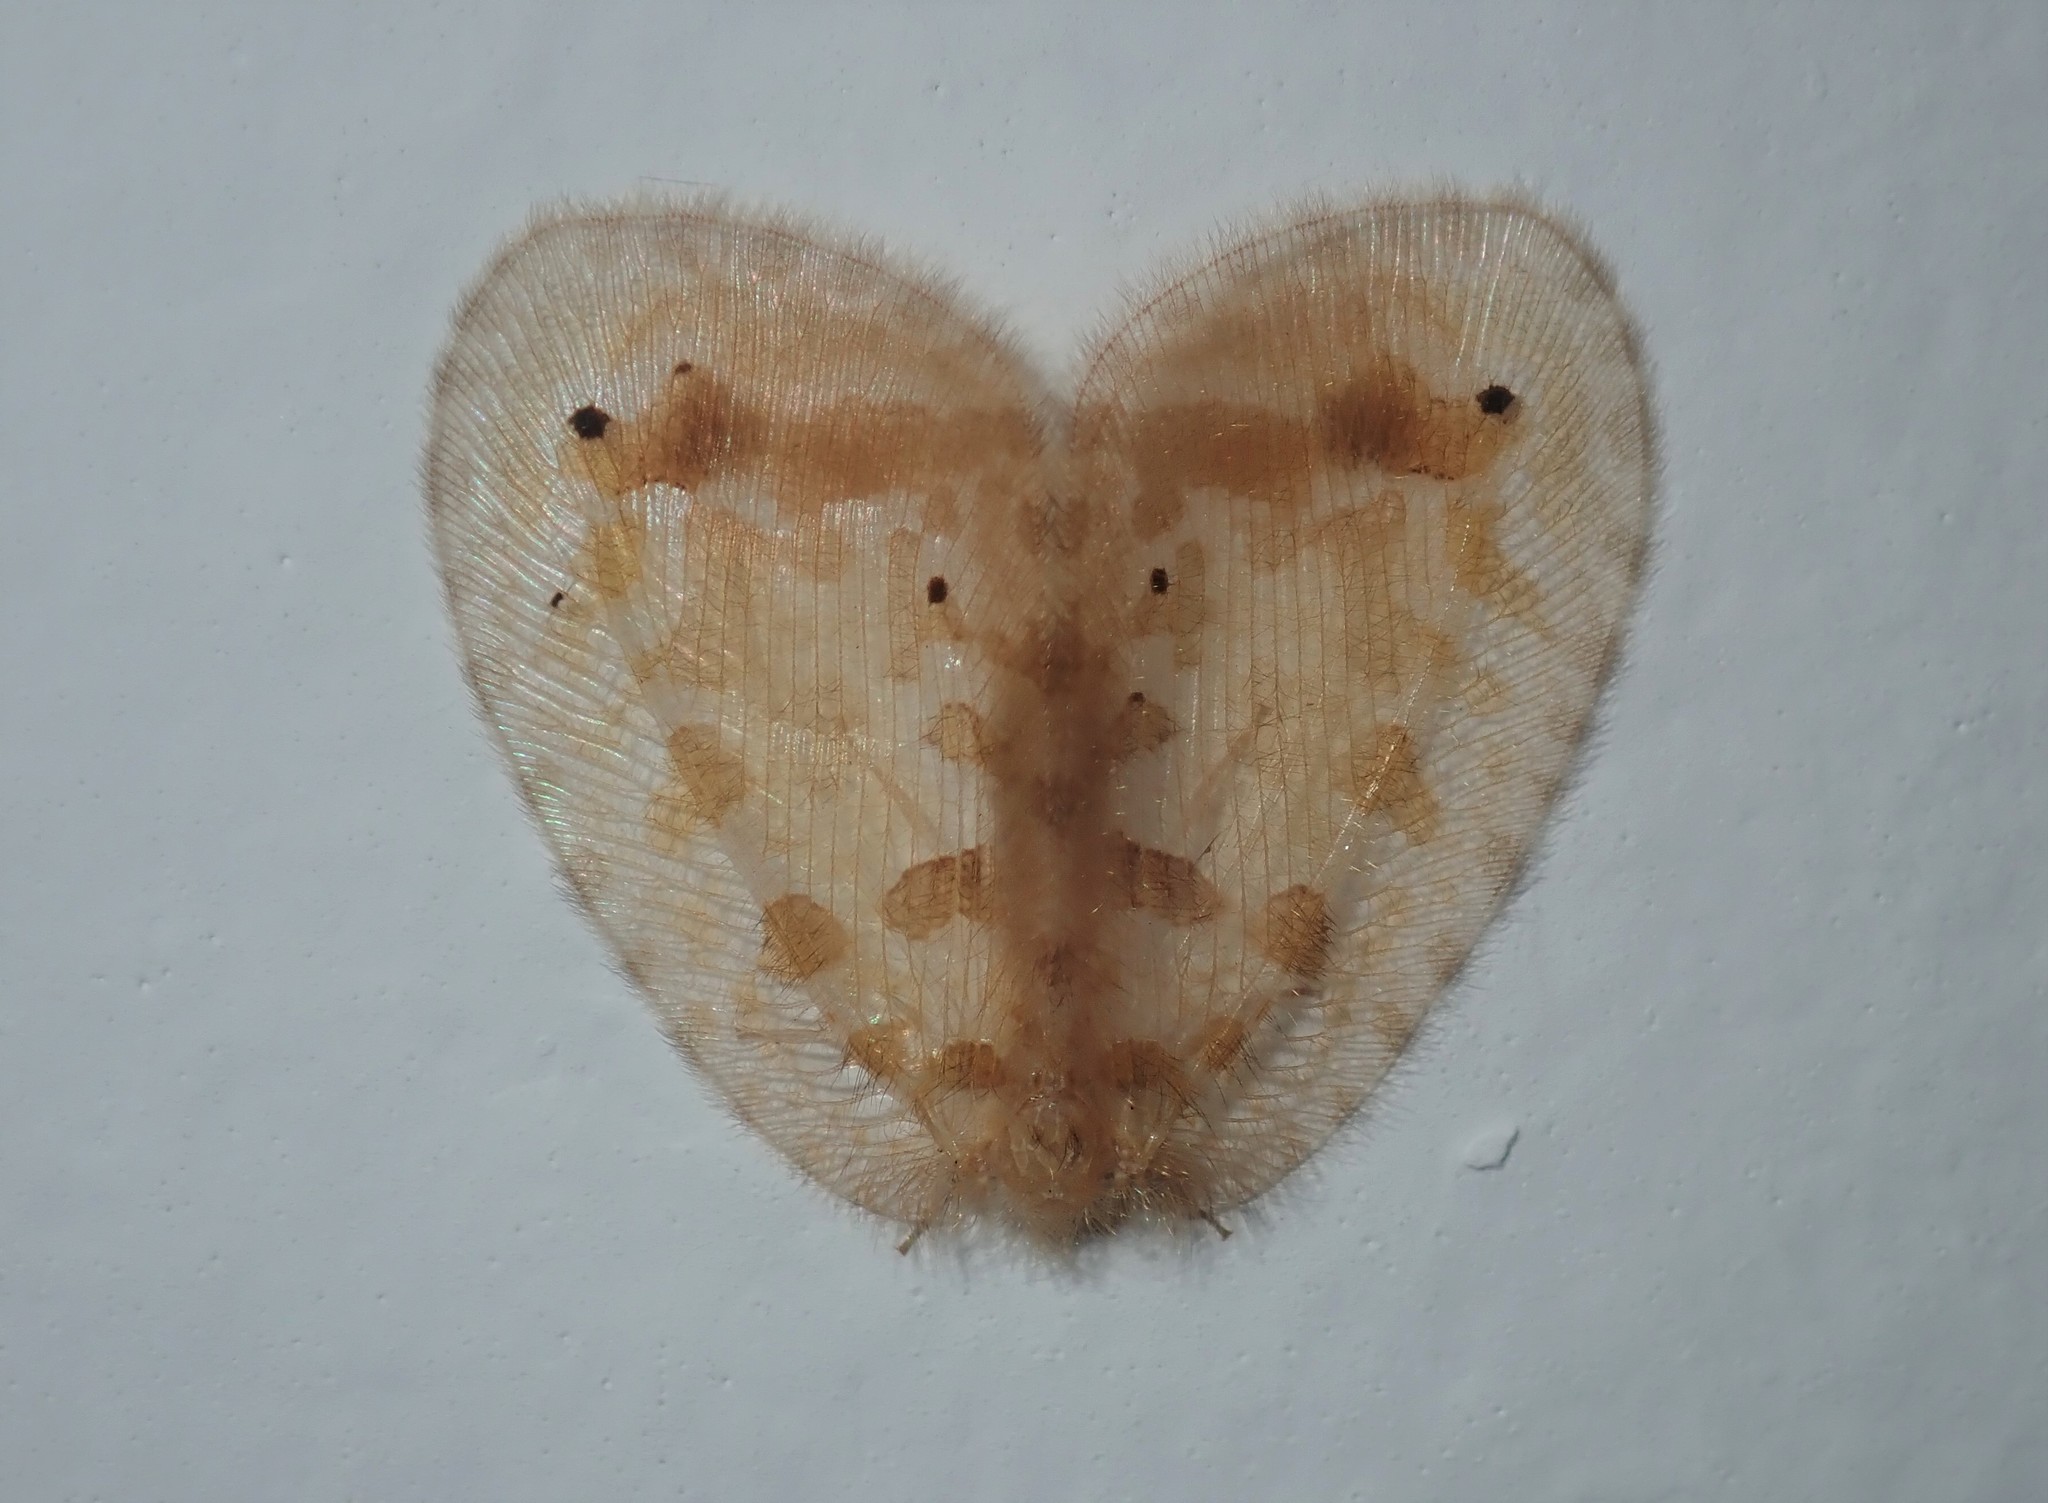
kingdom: Animalia
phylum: Arthropoda
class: Insecta
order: Neuroptera
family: Psychopsidae
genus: Psychopsis
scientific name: Psychopsis insolens
